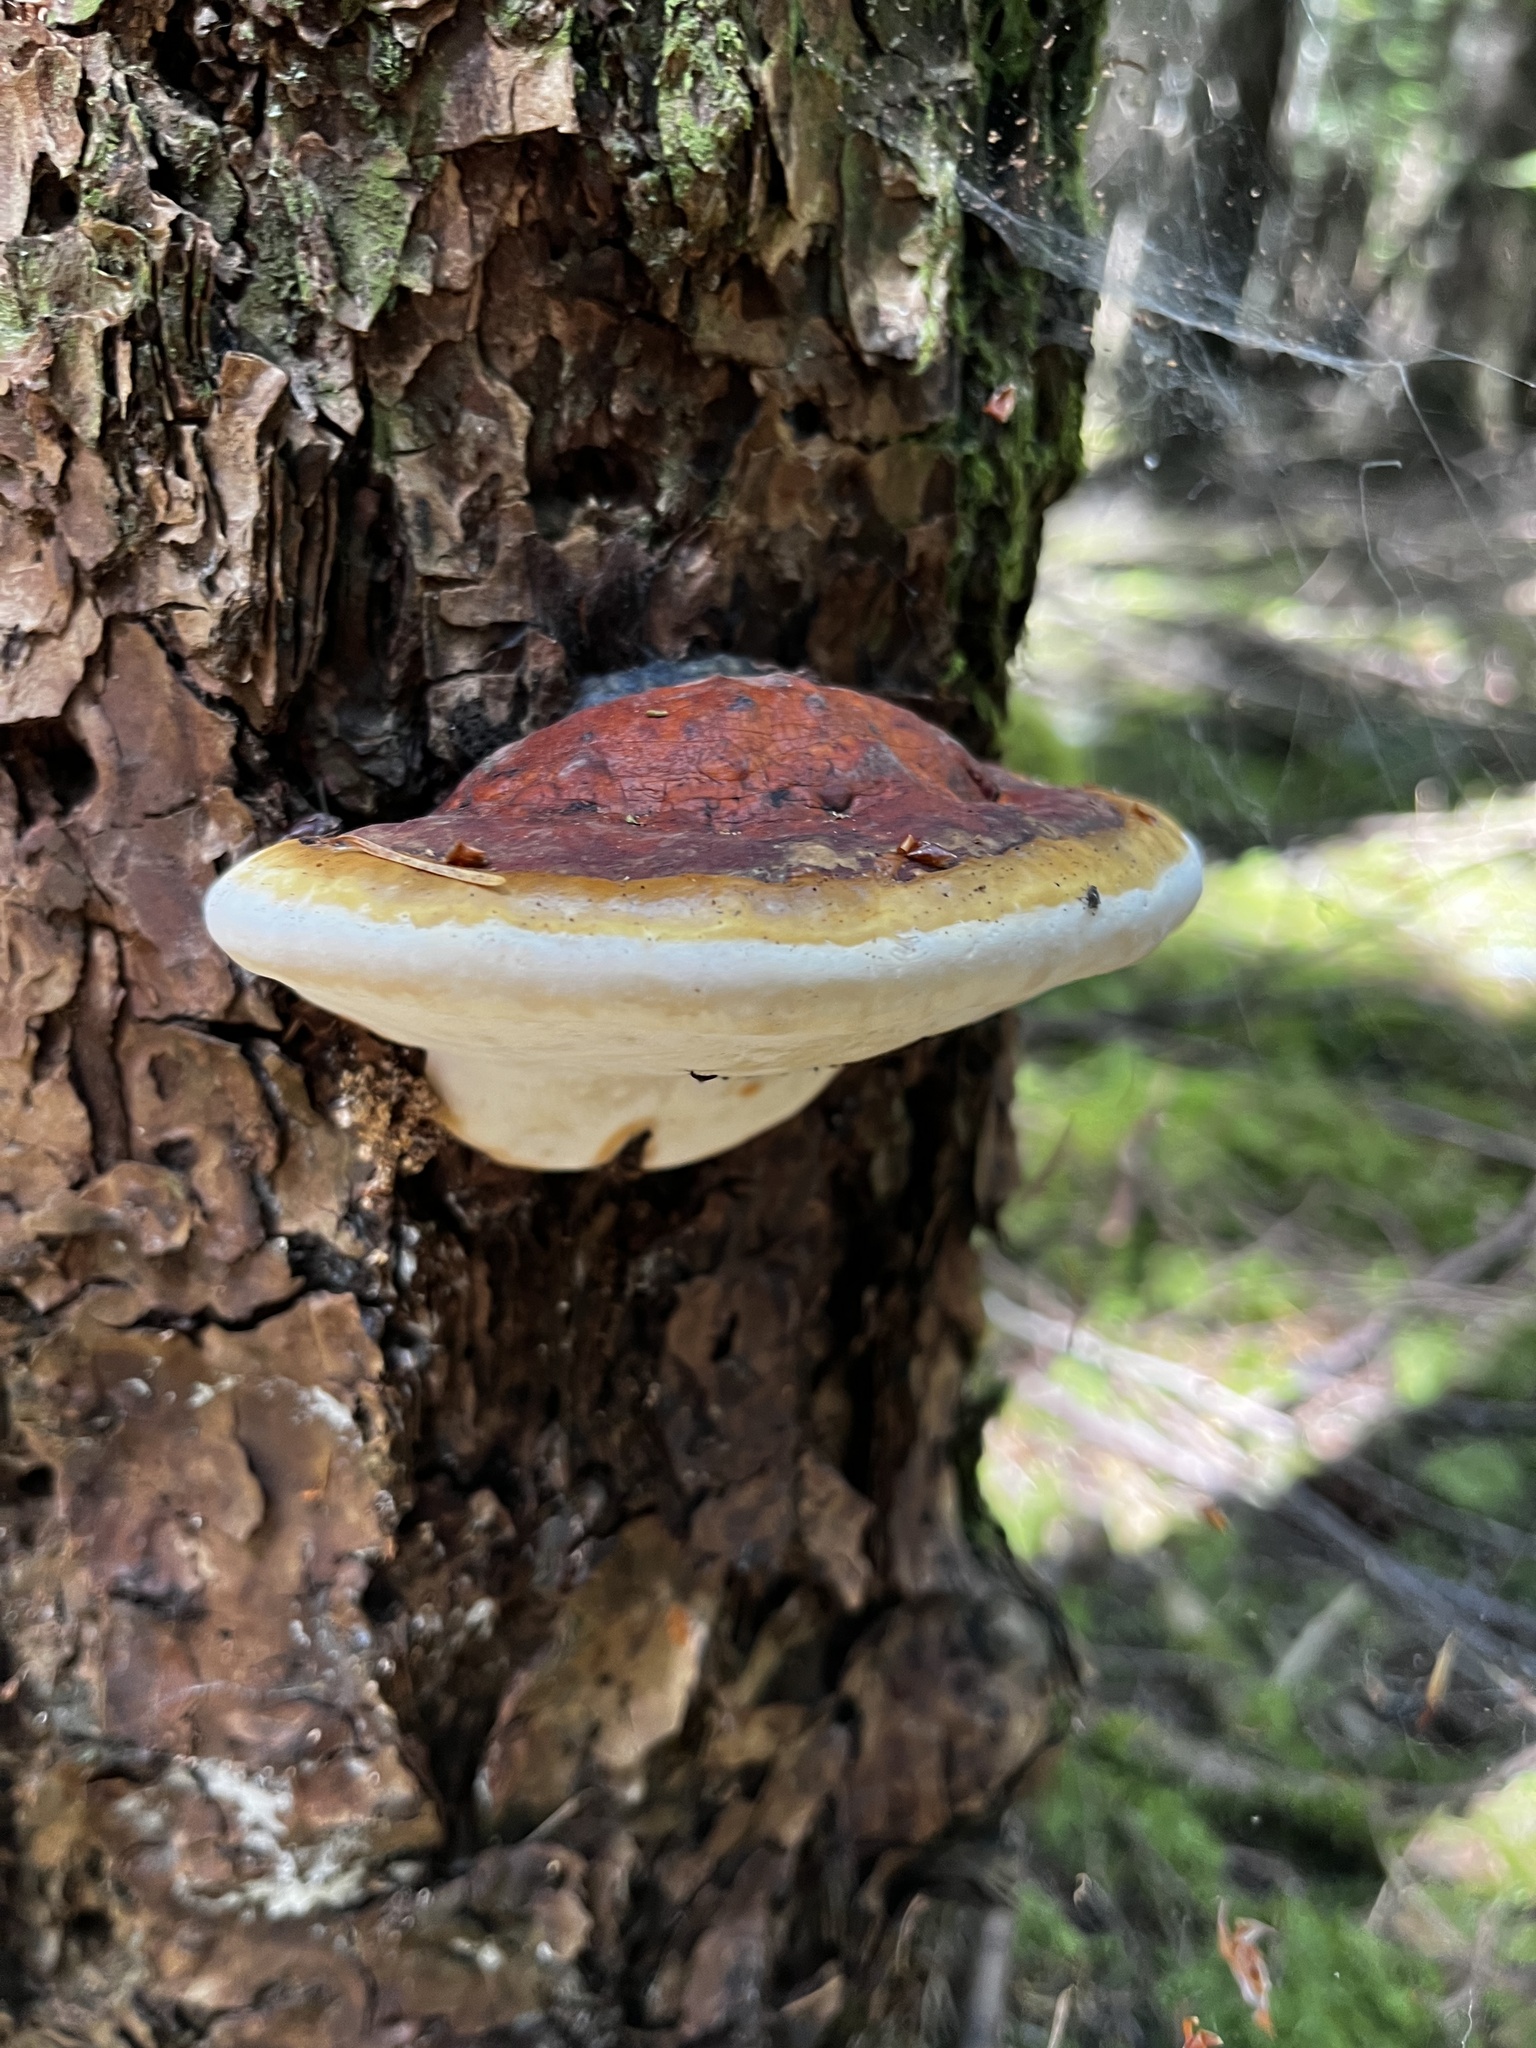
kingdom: Fungi
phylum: Basidiomycota
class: Agaricomycetes
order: Polyporales
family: Fomitopsidaceae
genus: Fomitopsis
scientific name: Fomitopsis mounceae
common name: Northern red belt
